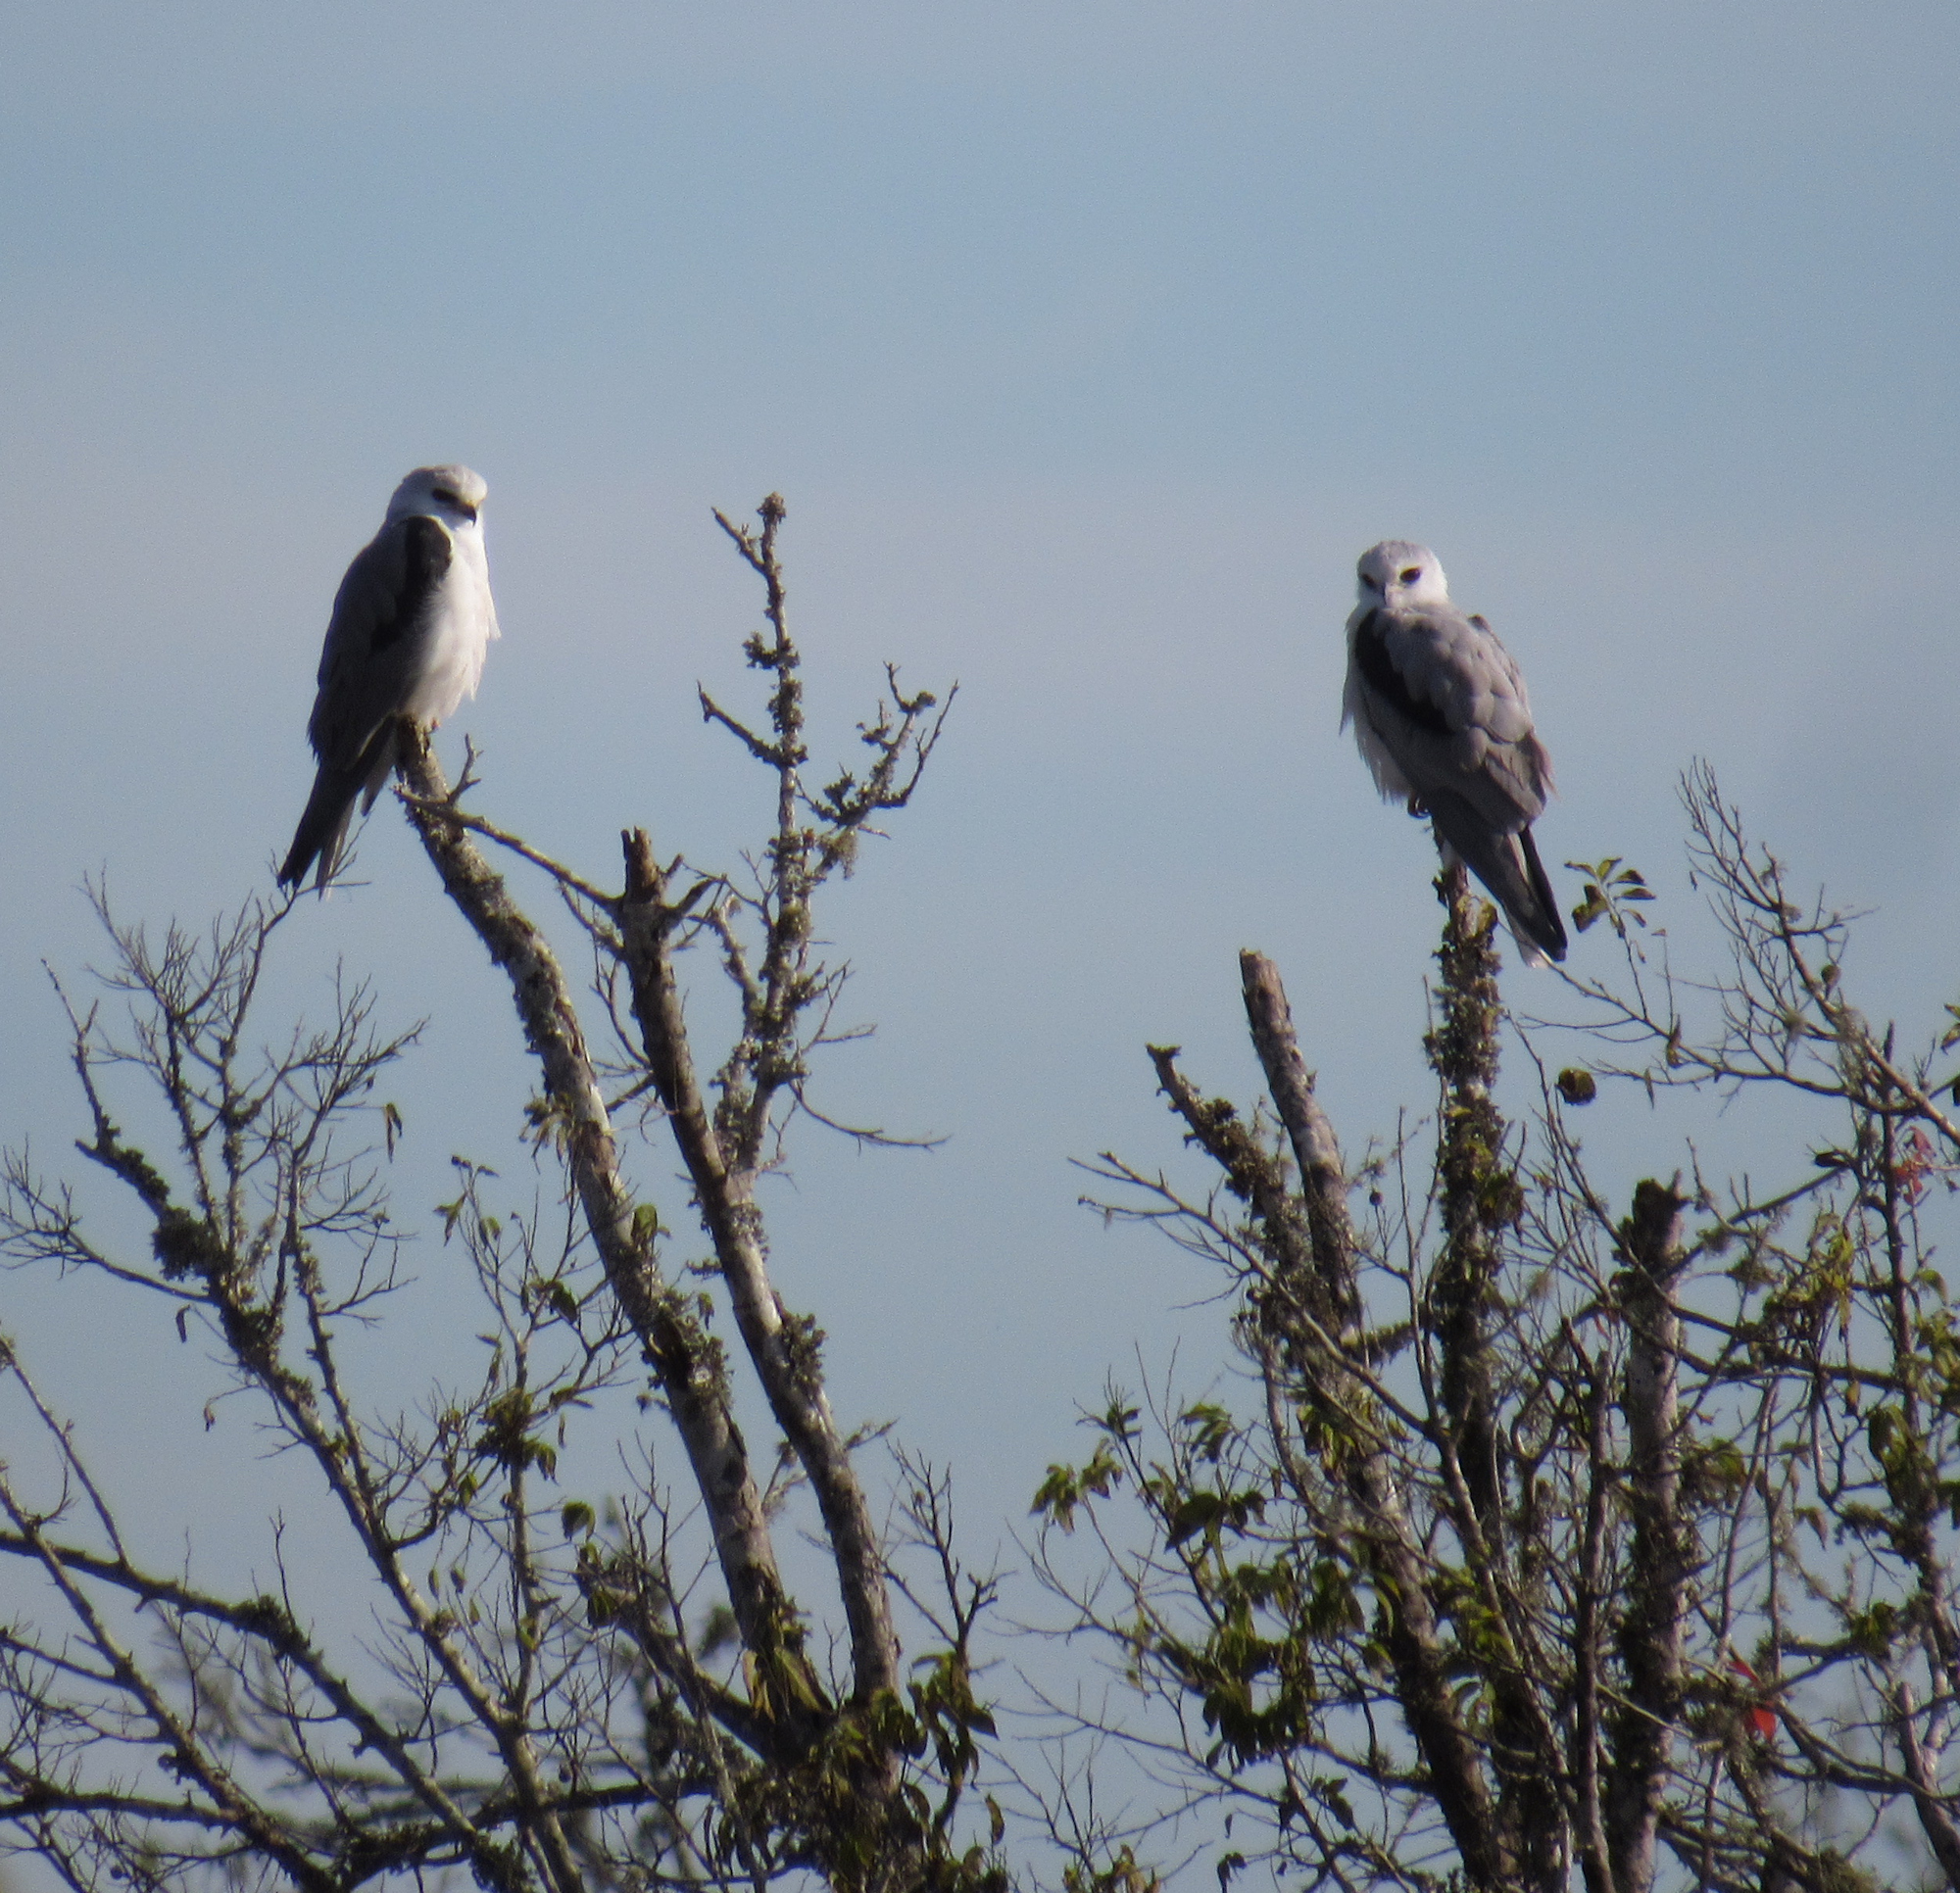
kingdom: Animalia
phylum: Chordata
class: Aves
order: Accipitriformes
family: Accipitridae
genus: Elanus
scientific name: Elanus leucurus
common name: White-tailed kite
